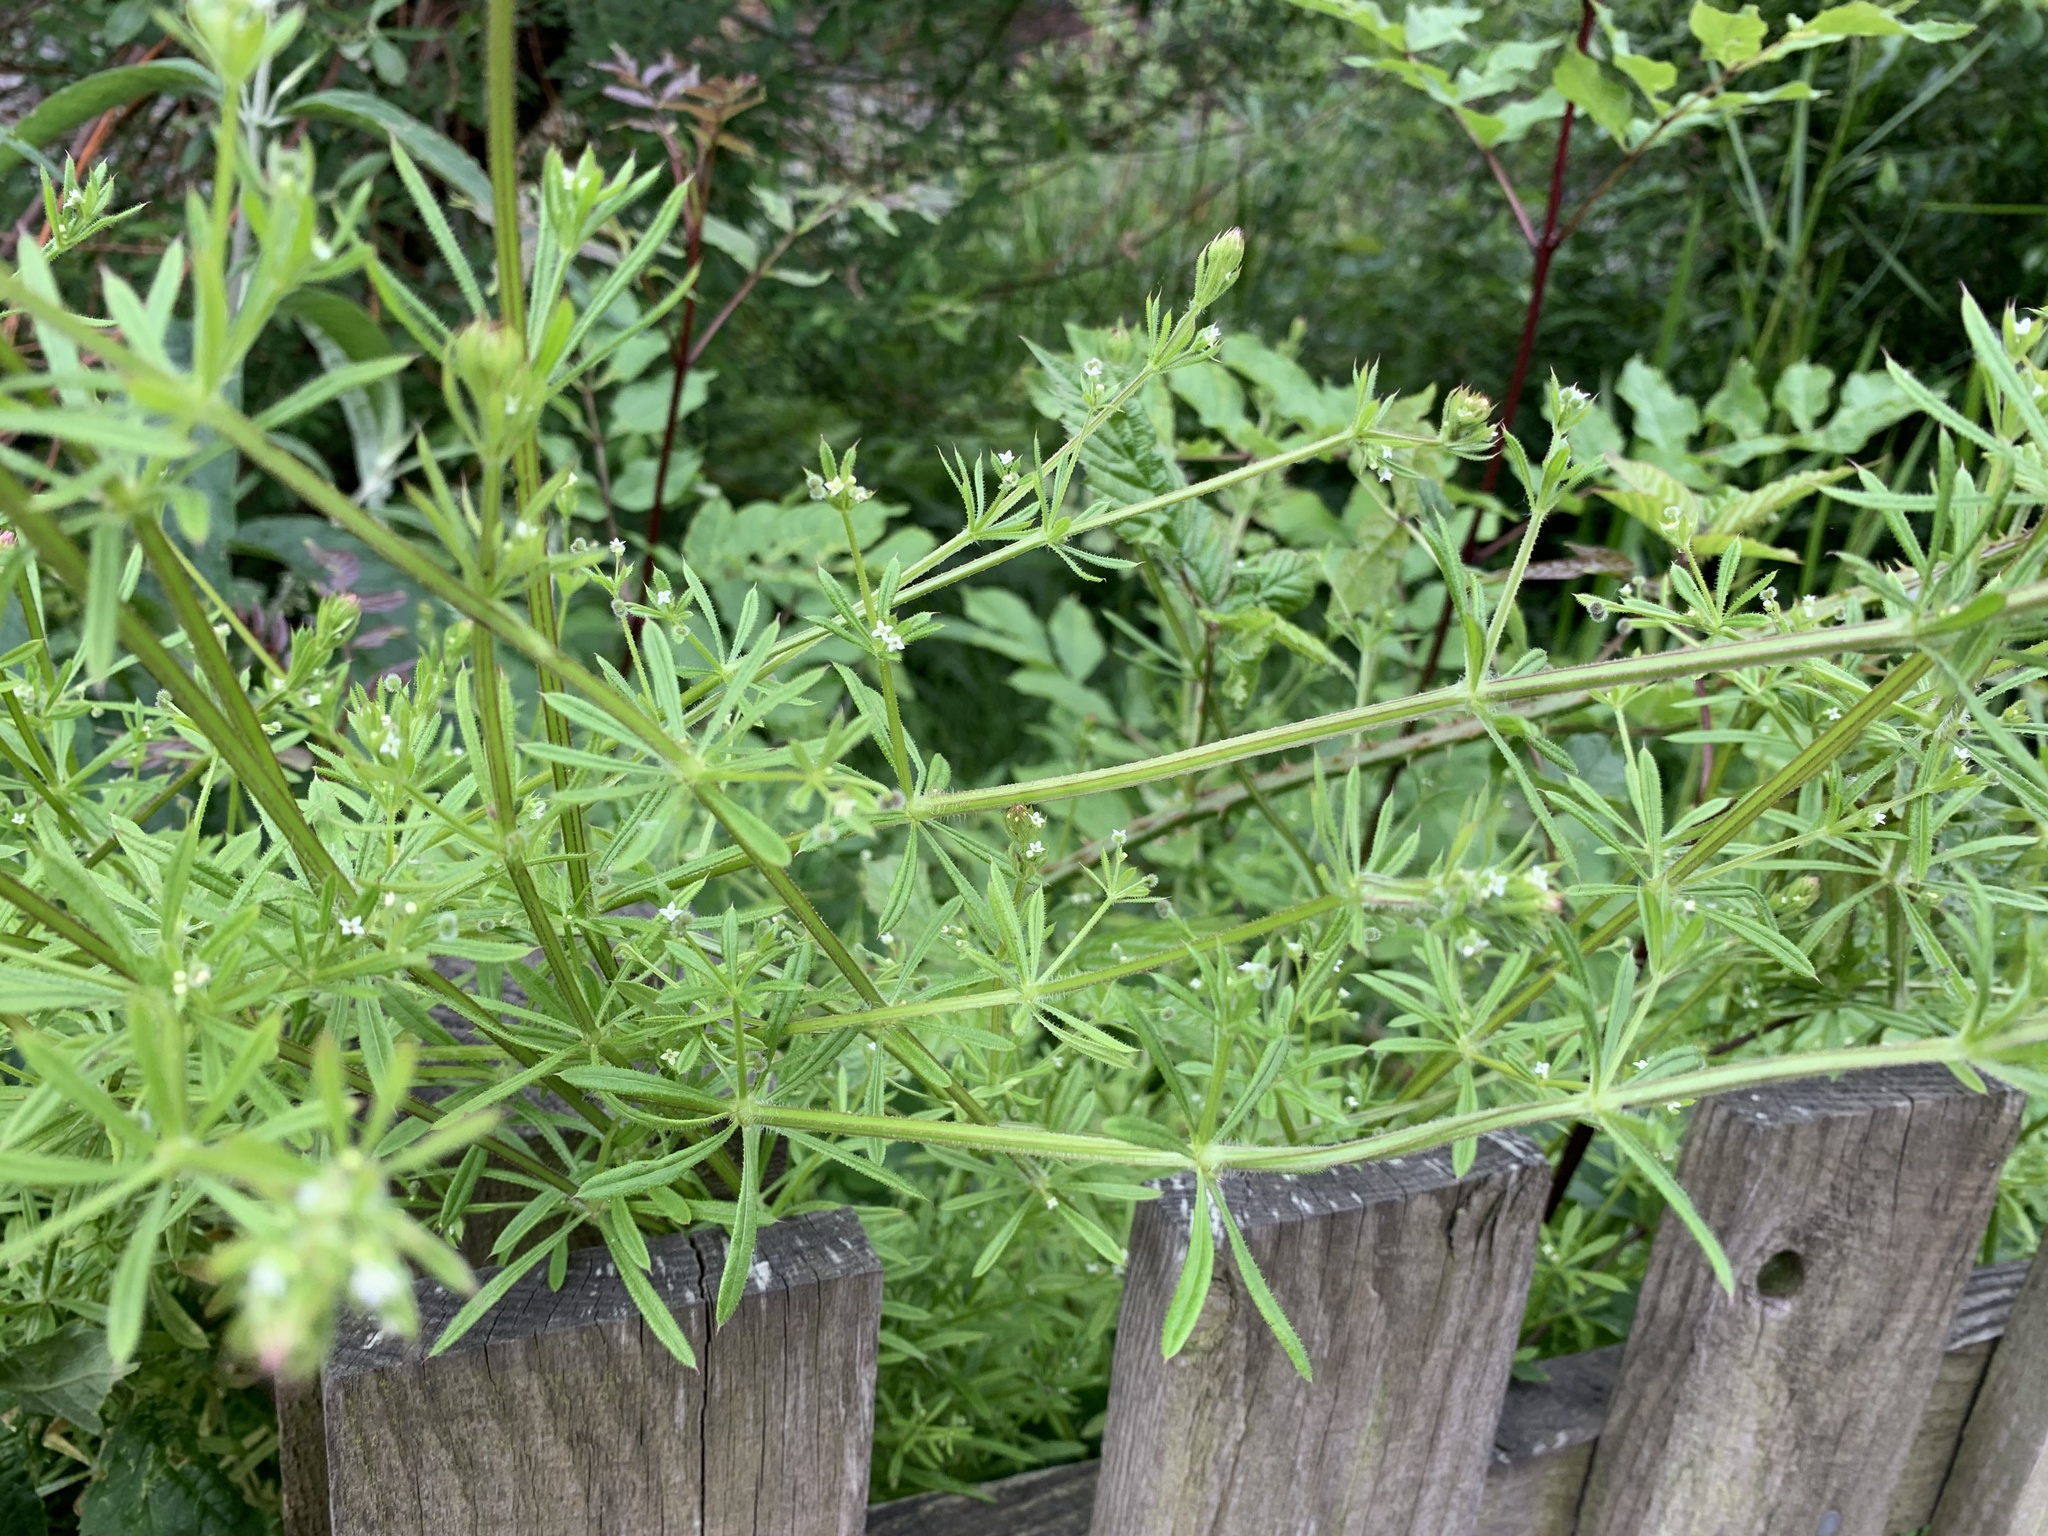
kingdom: Plantae
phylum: Tracheophyta
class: Magnoliopsida
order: Gentianales
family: Rubiaceae
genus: Galium
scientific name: Galium aparine
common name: Cleavers
